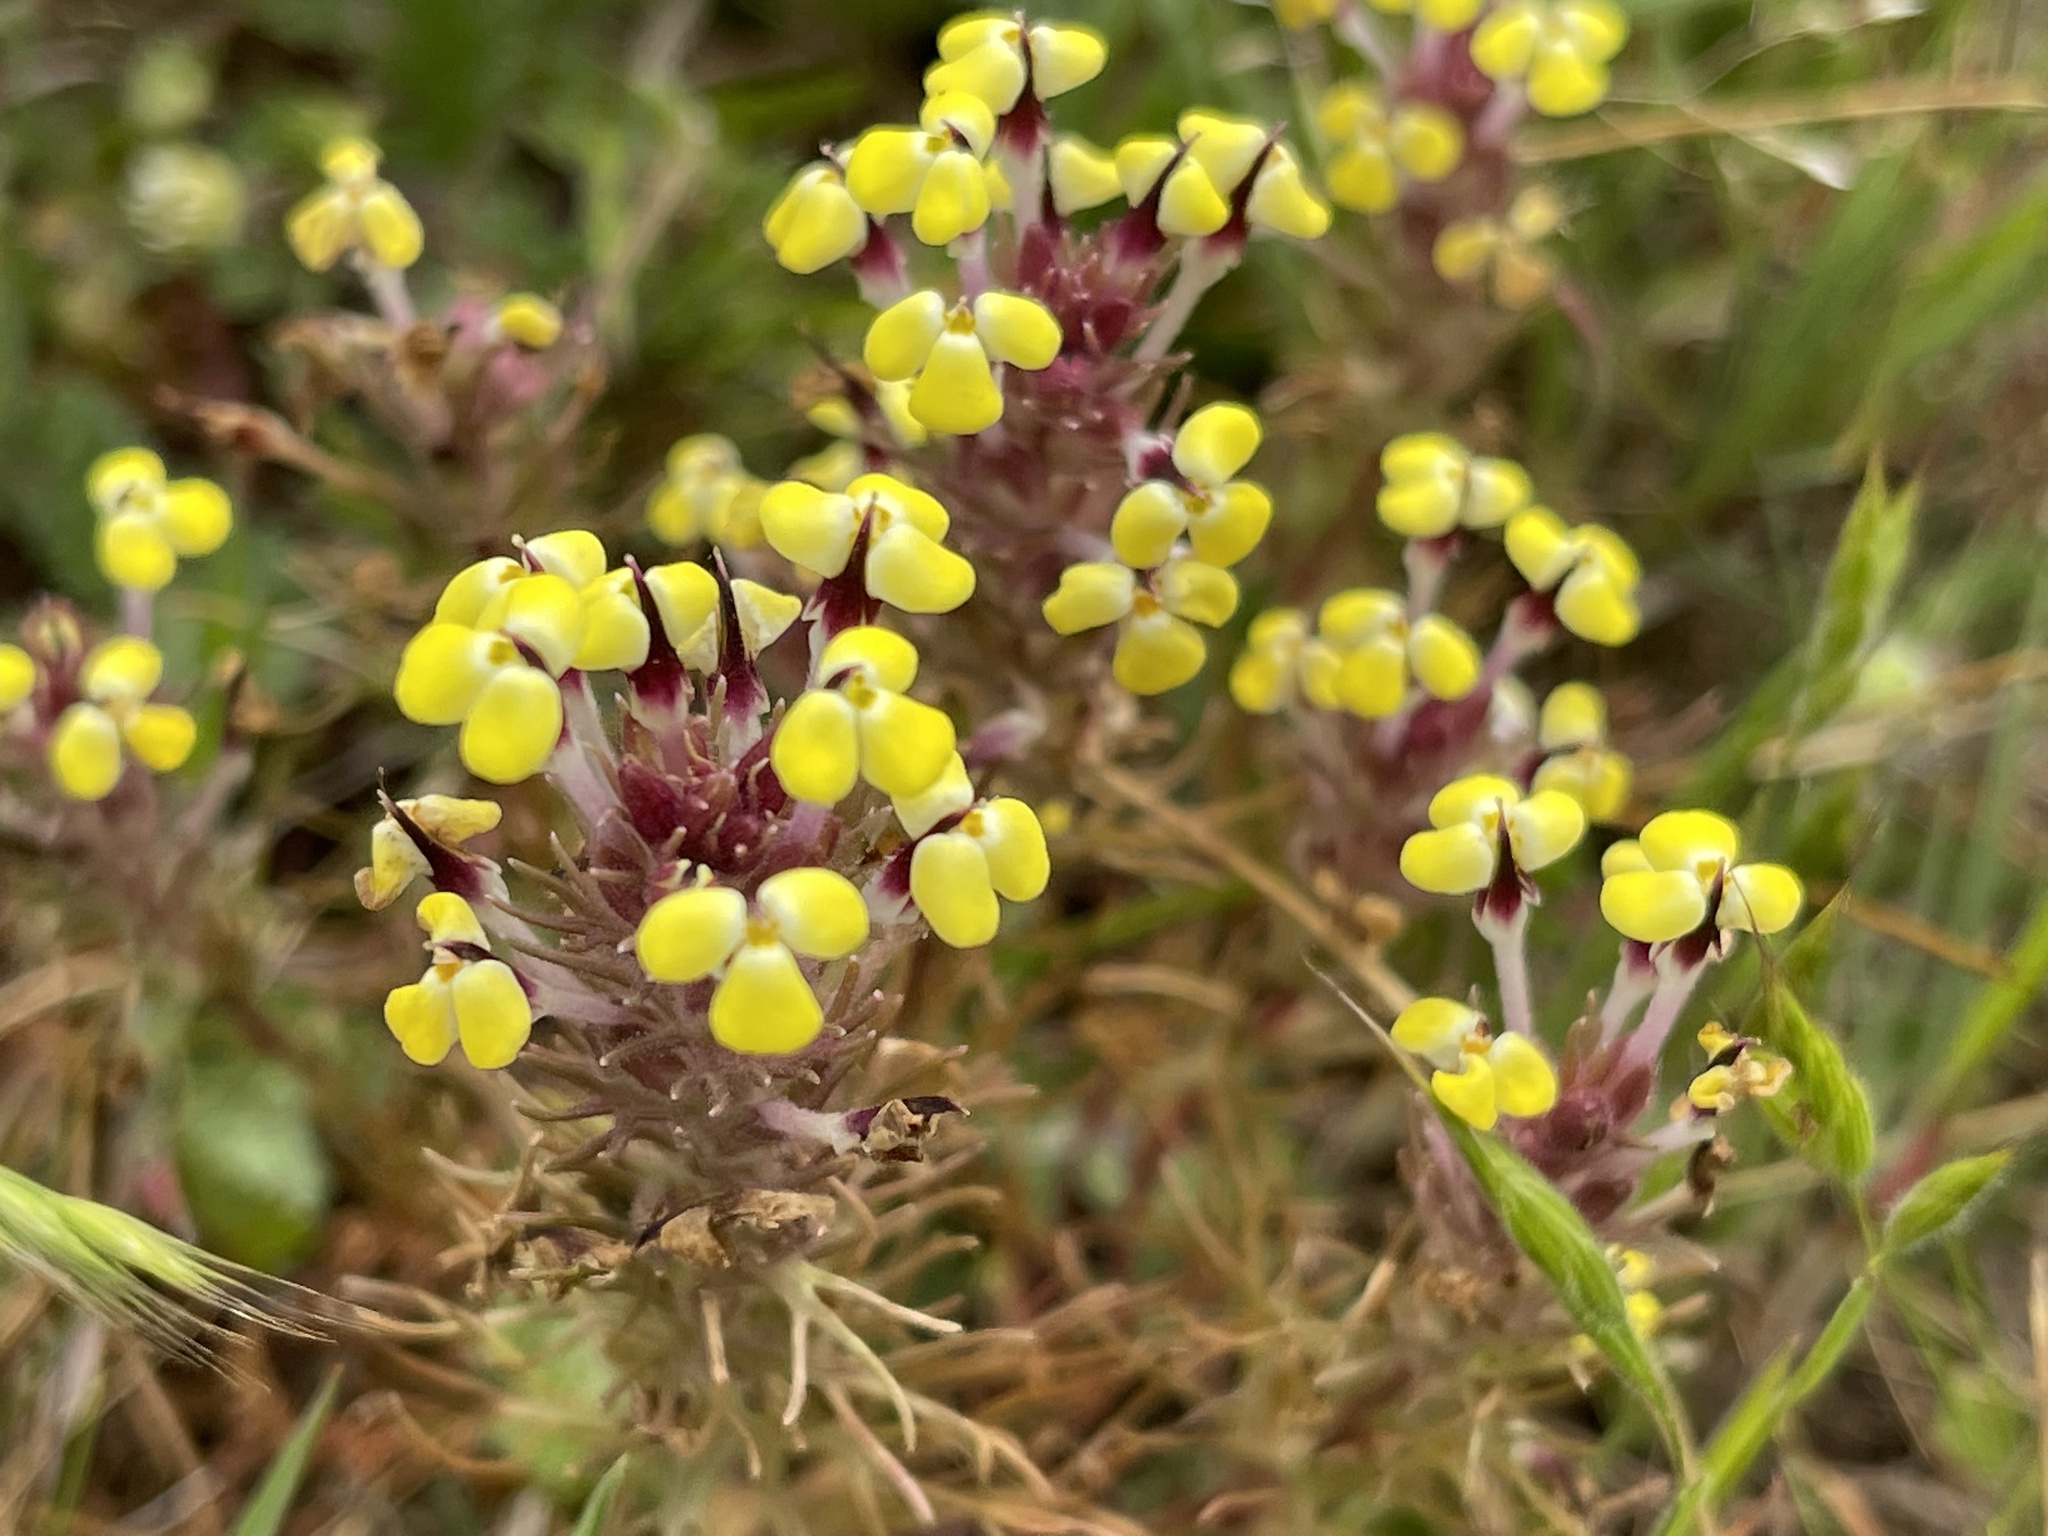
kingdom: Plantae
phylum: Tracheophyta
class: Magnoliopsida
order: Lamiales
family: Orobanchaceae
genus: Triphysaria
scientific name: Triphysaria eriantha
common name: Johnny-tuck
